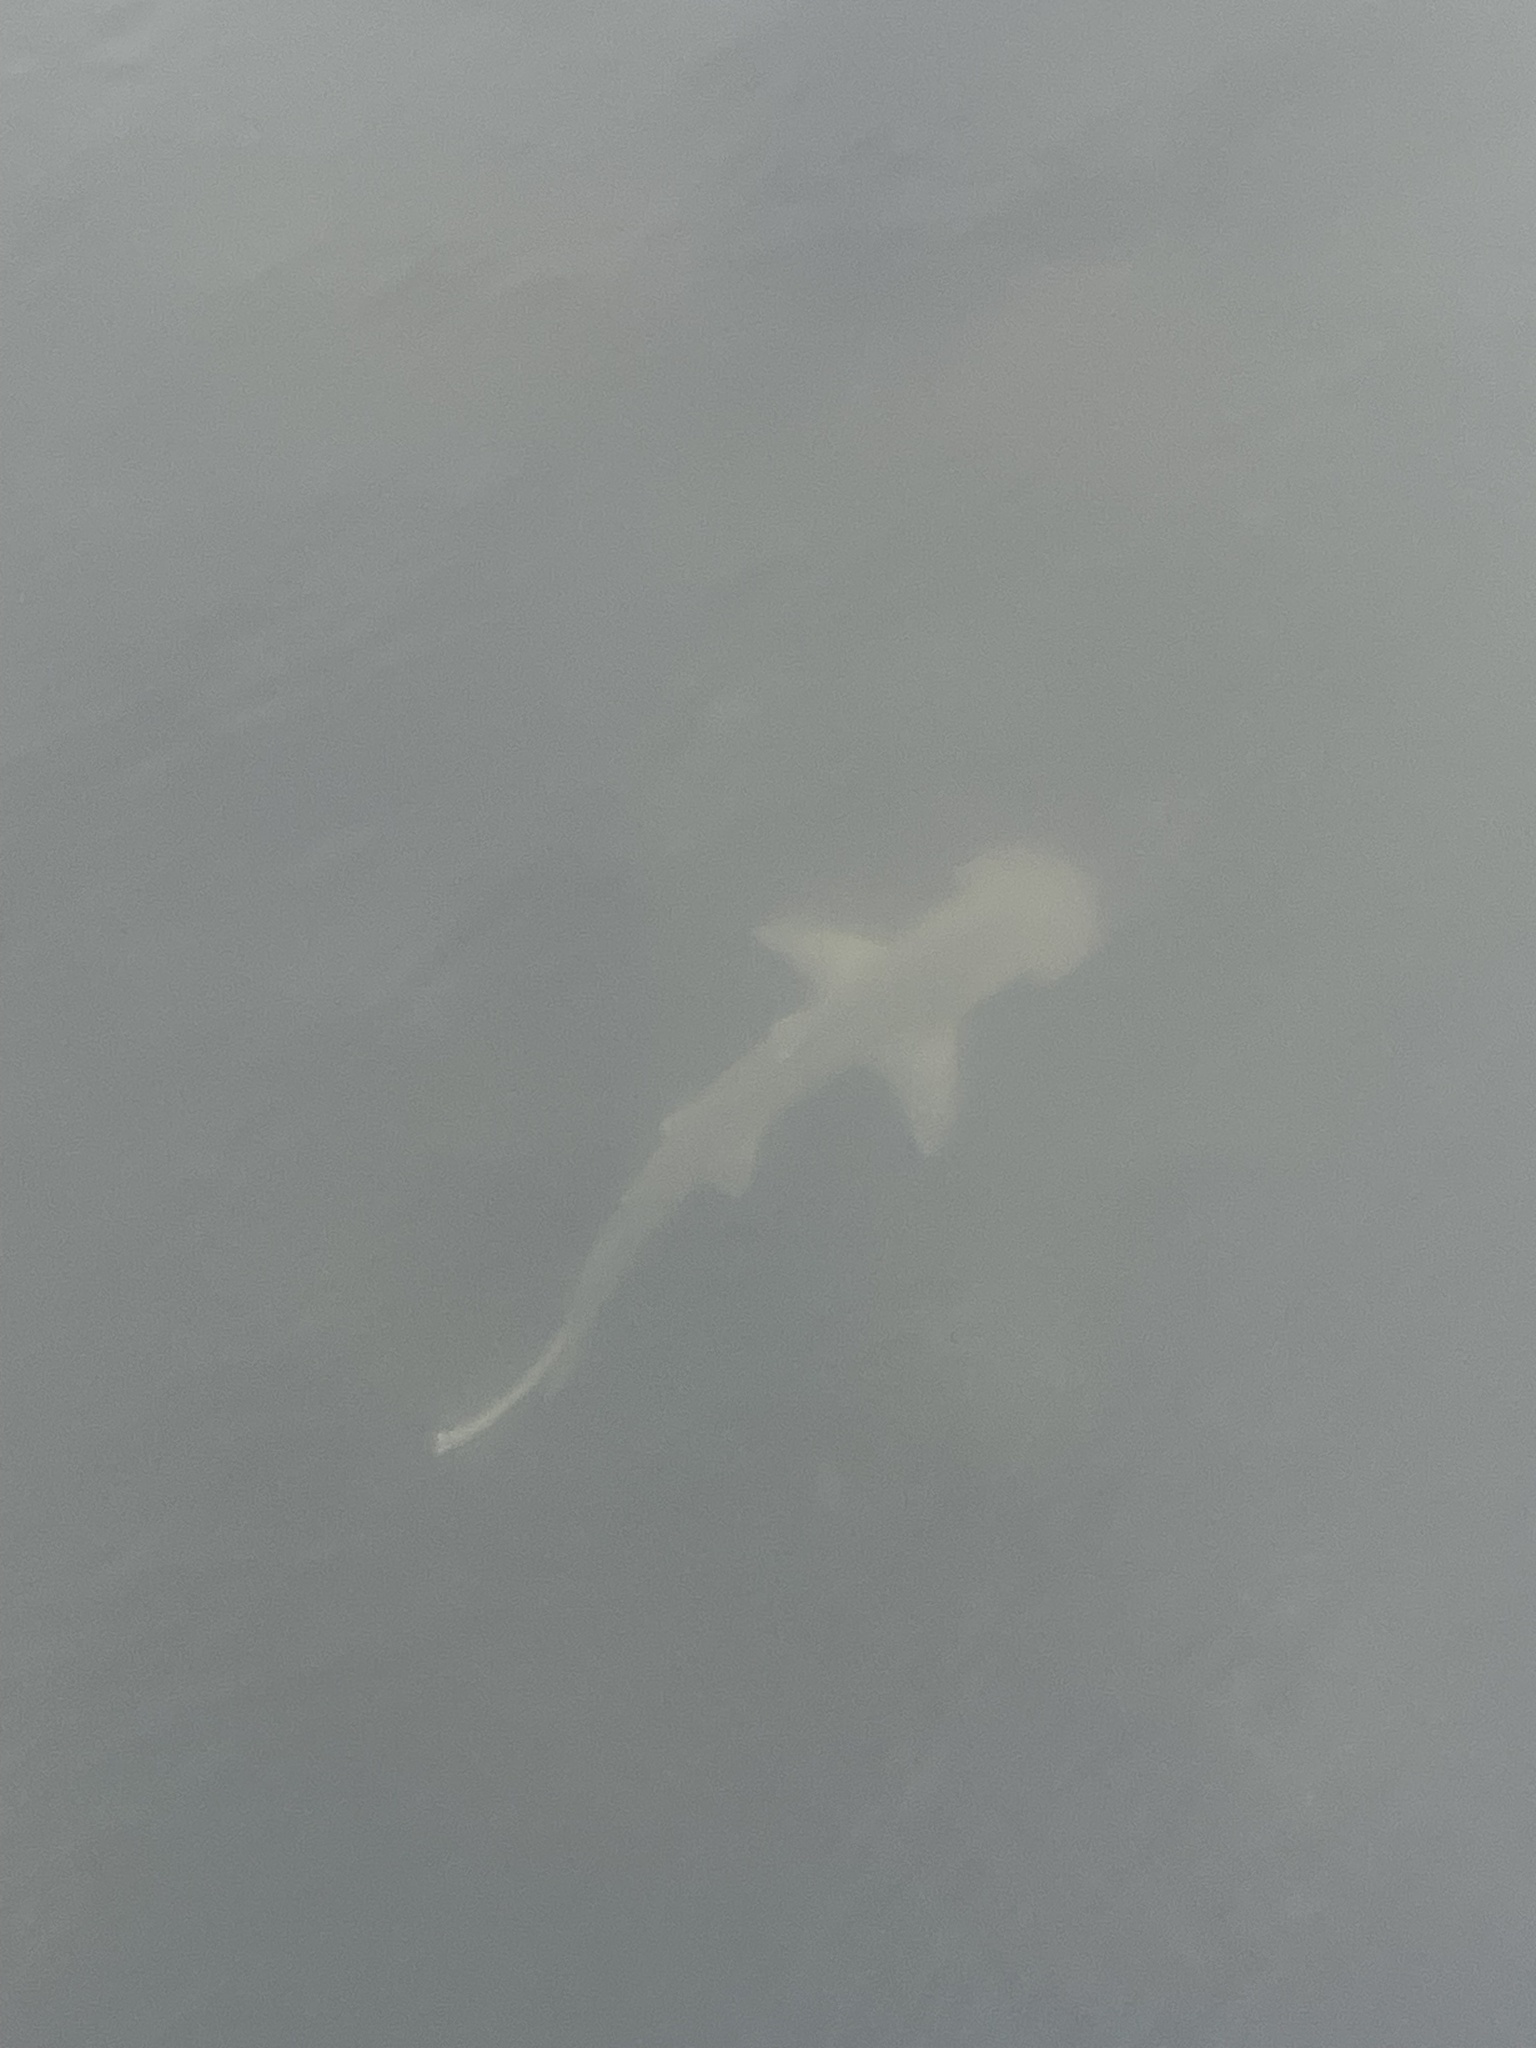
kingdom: Animalia
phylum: Chordata
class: Elasmobranchii
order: Carcharhiniformes
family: Sphyrnidae
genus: Sphyrna
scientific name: Sphyrna tiburo
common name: Bonnethead
